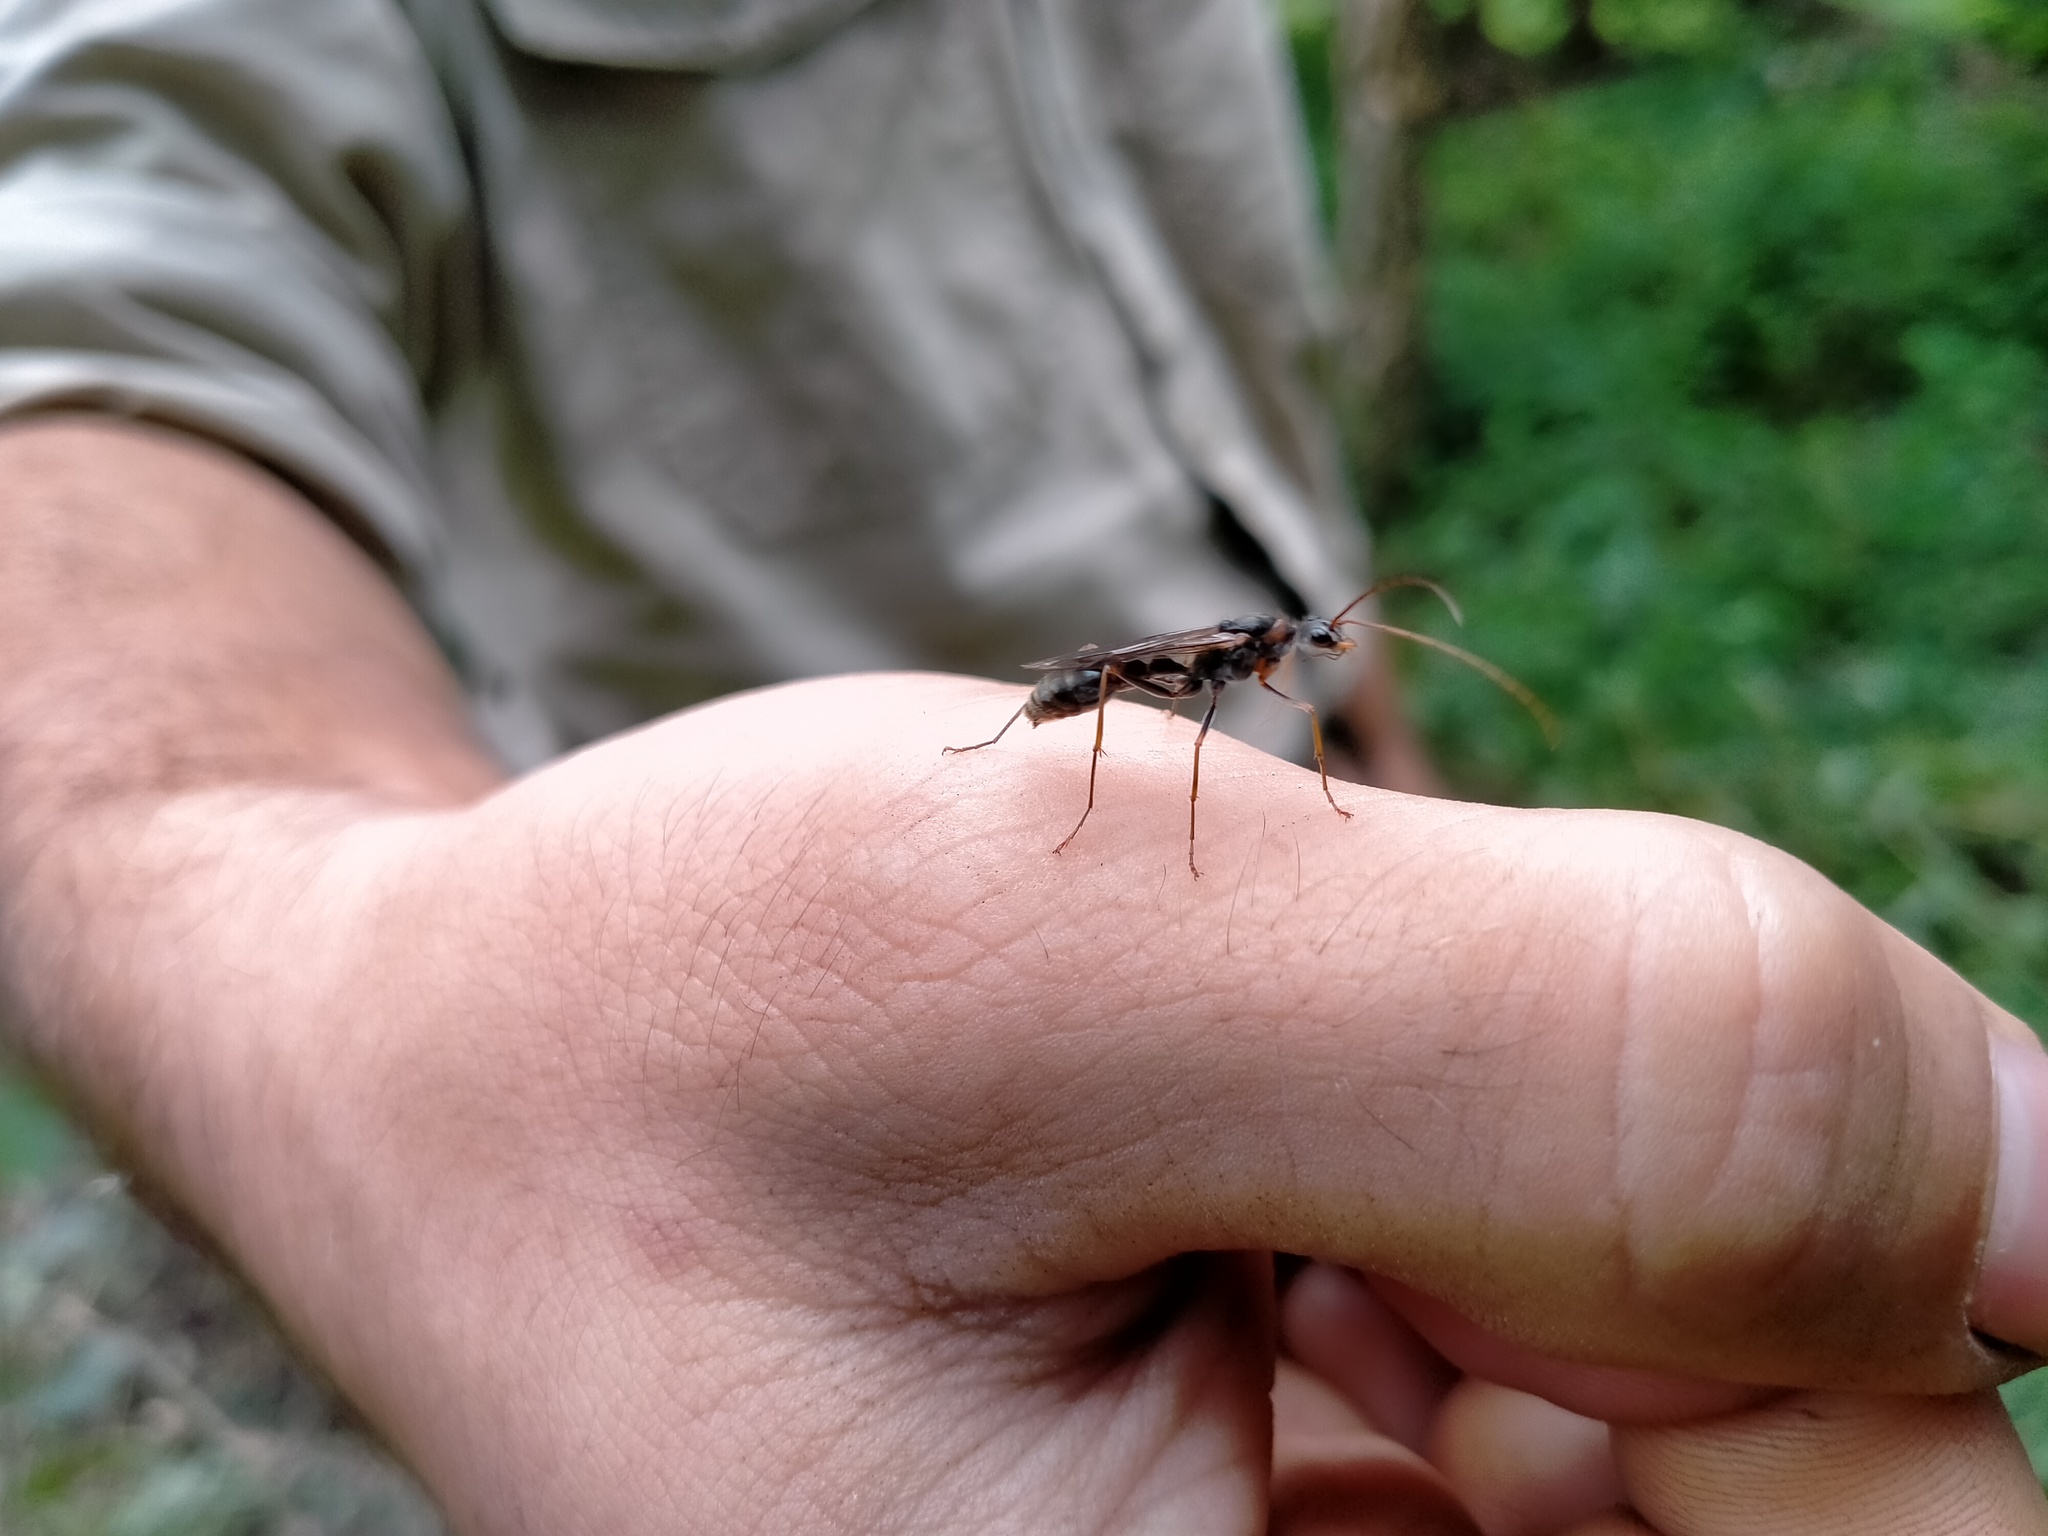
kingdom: Animalia
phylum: Arthropoda
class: Insecta
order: Hymenoptera
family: Formicidae
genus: Myrmecia
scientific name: Myrmecia nigrocincta
